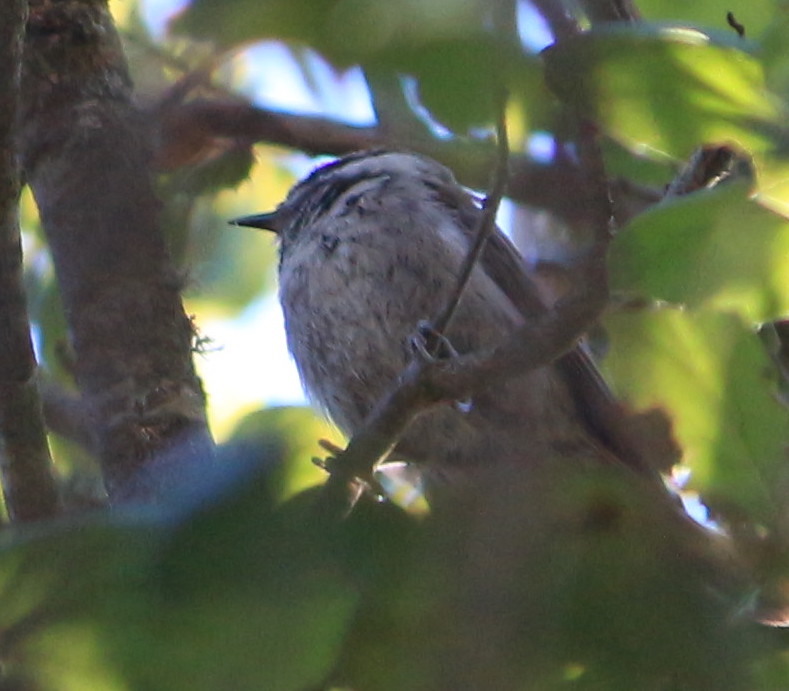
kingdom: Animalia
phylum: Chordata
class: Aves
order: Passeriformes
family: Paridae
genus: Poecile
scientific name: Poecile rufescens
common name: Chestnut-backed chickadee
